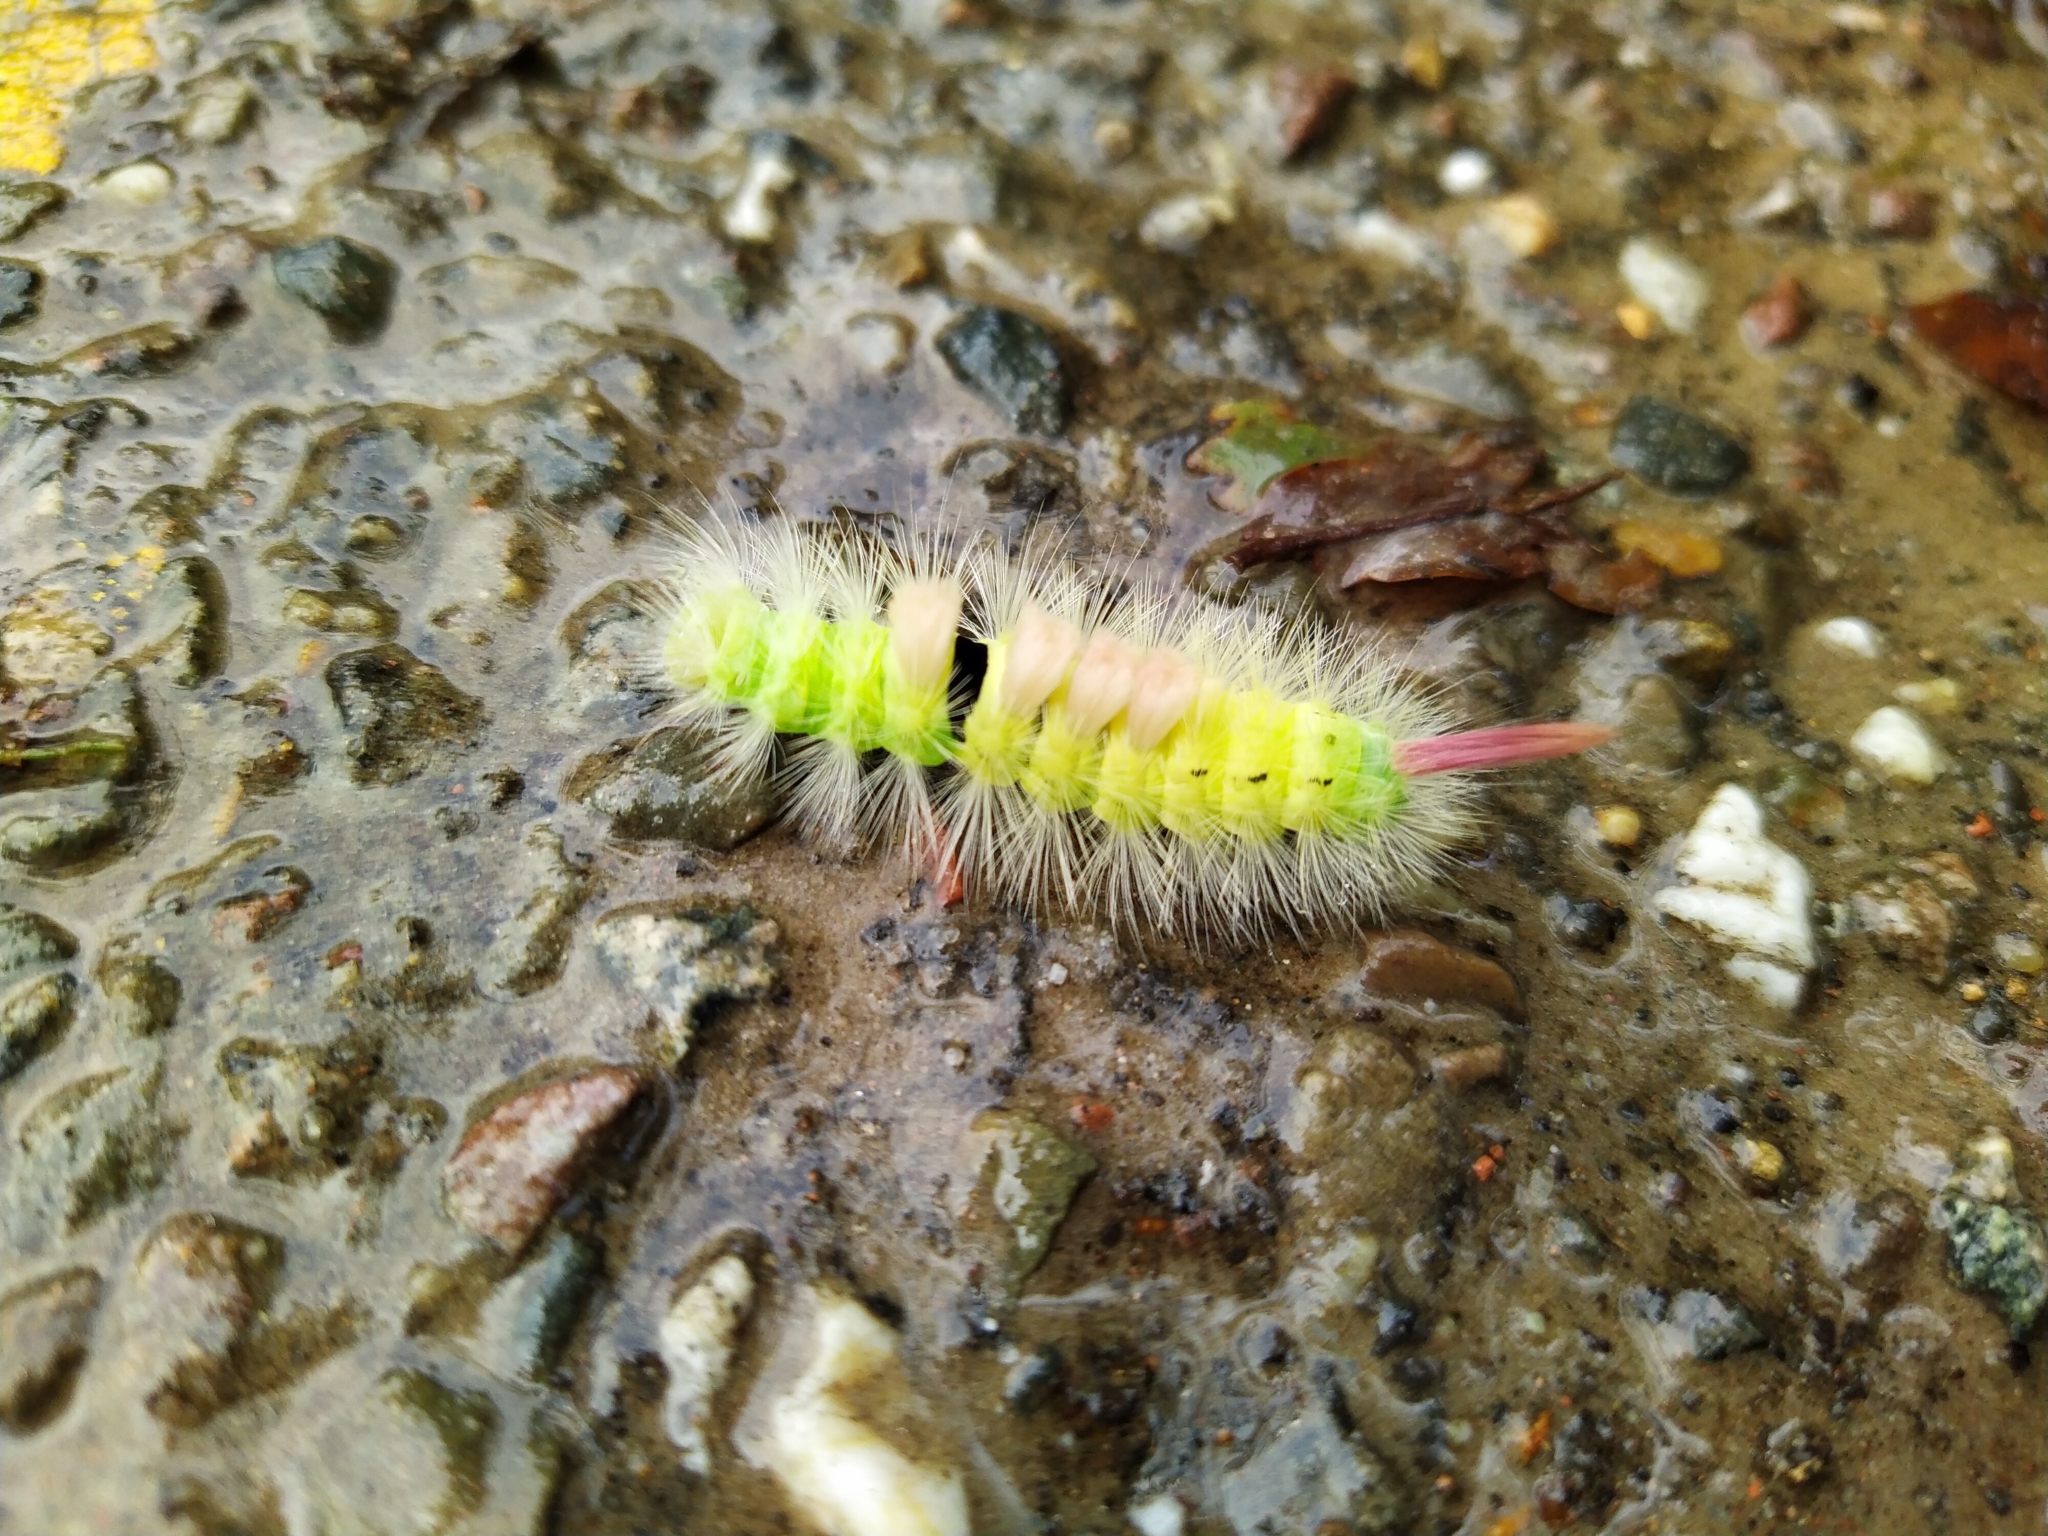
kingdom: Animalia
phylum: Arthropoda
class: Insecta
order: Lepidoptera
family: Erebidae
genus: Calliteara
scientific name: Calliteara pudibunda
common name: Pale tussock
